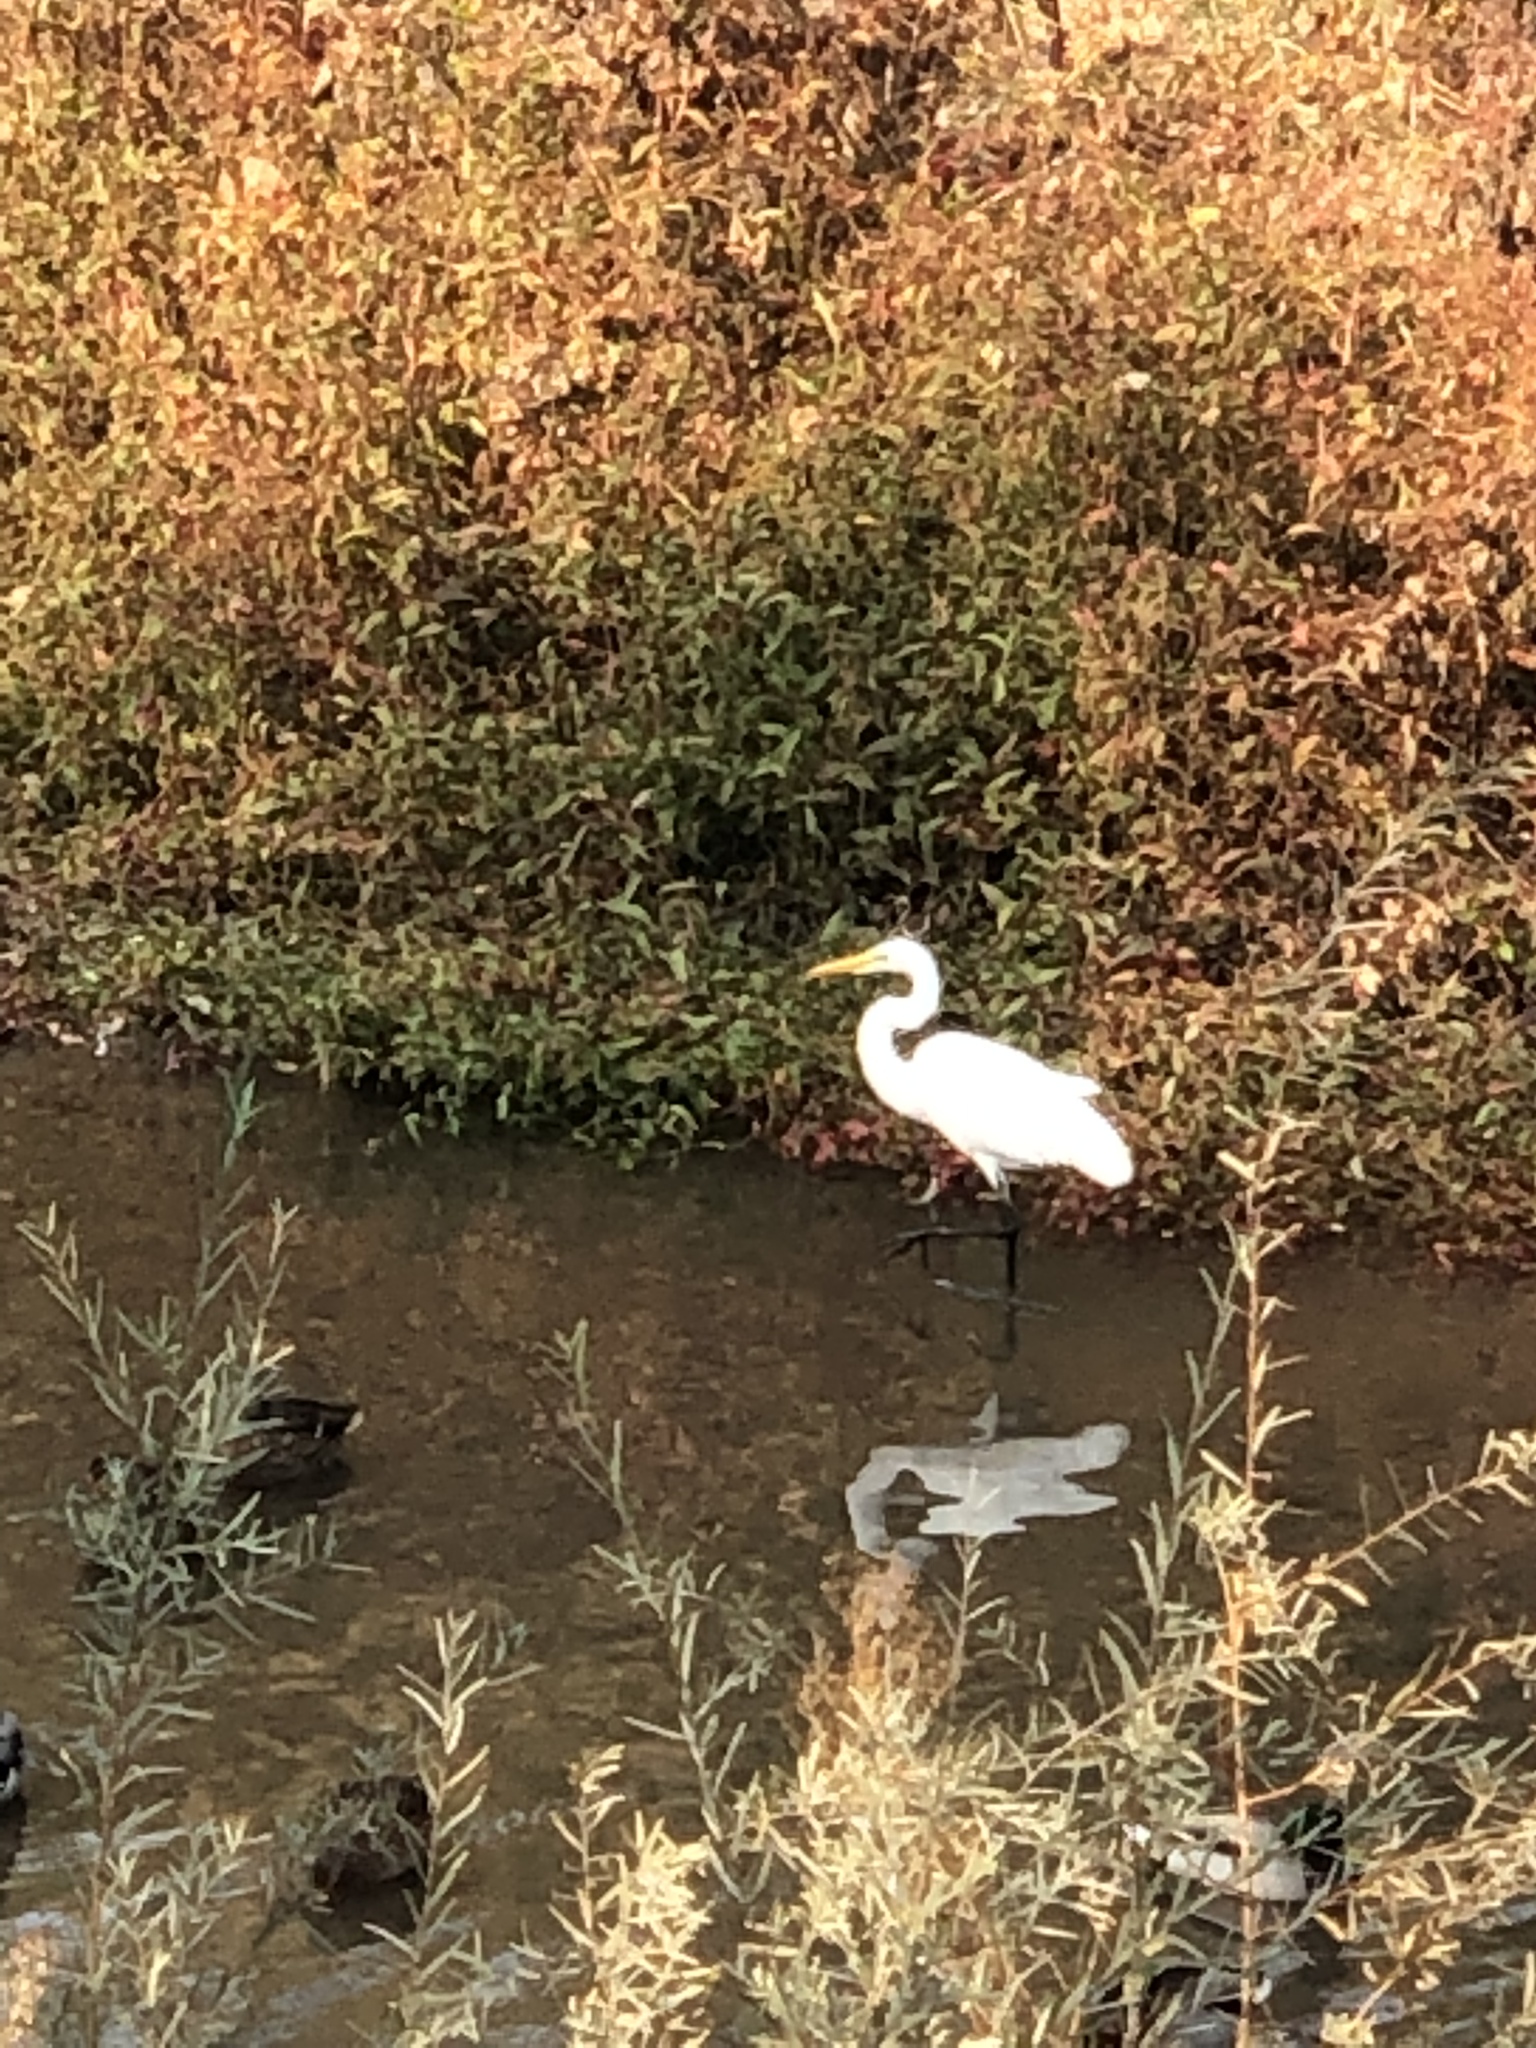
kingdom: Animalia
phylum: Chordata
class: Aves
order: Pelecaniformes
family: Ardeidae
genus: Ardea
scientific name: Ardea alba
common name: Great egret
